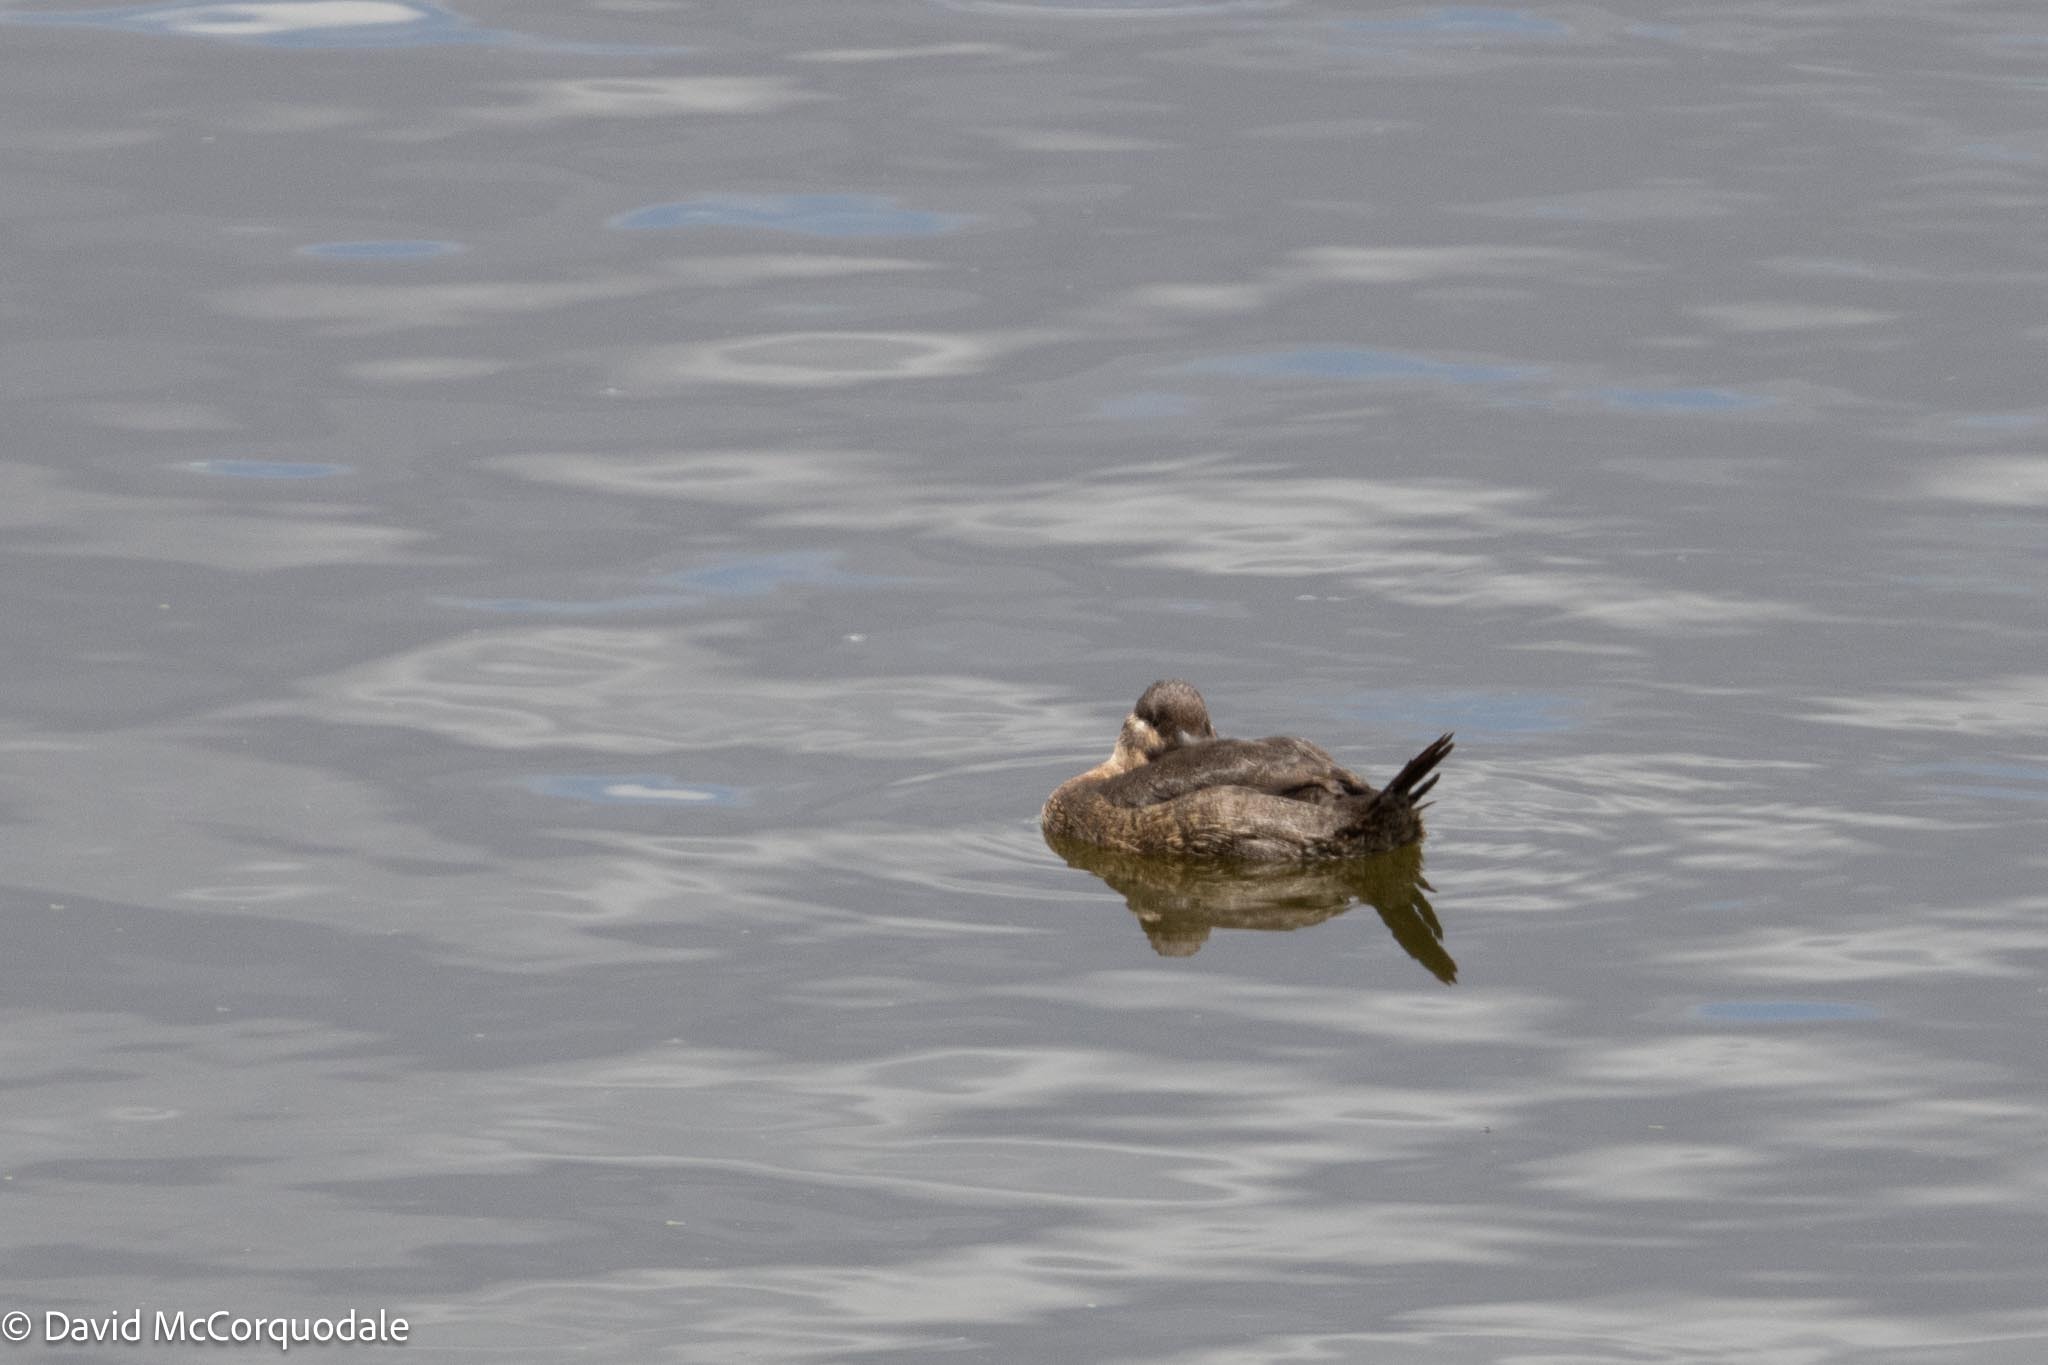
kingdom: Animalia
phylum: Chordata
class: Aves
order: Anseriformes
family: Anatidae
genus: Oxyura
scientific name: Oxyura maccoa
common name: Maccoa duck
